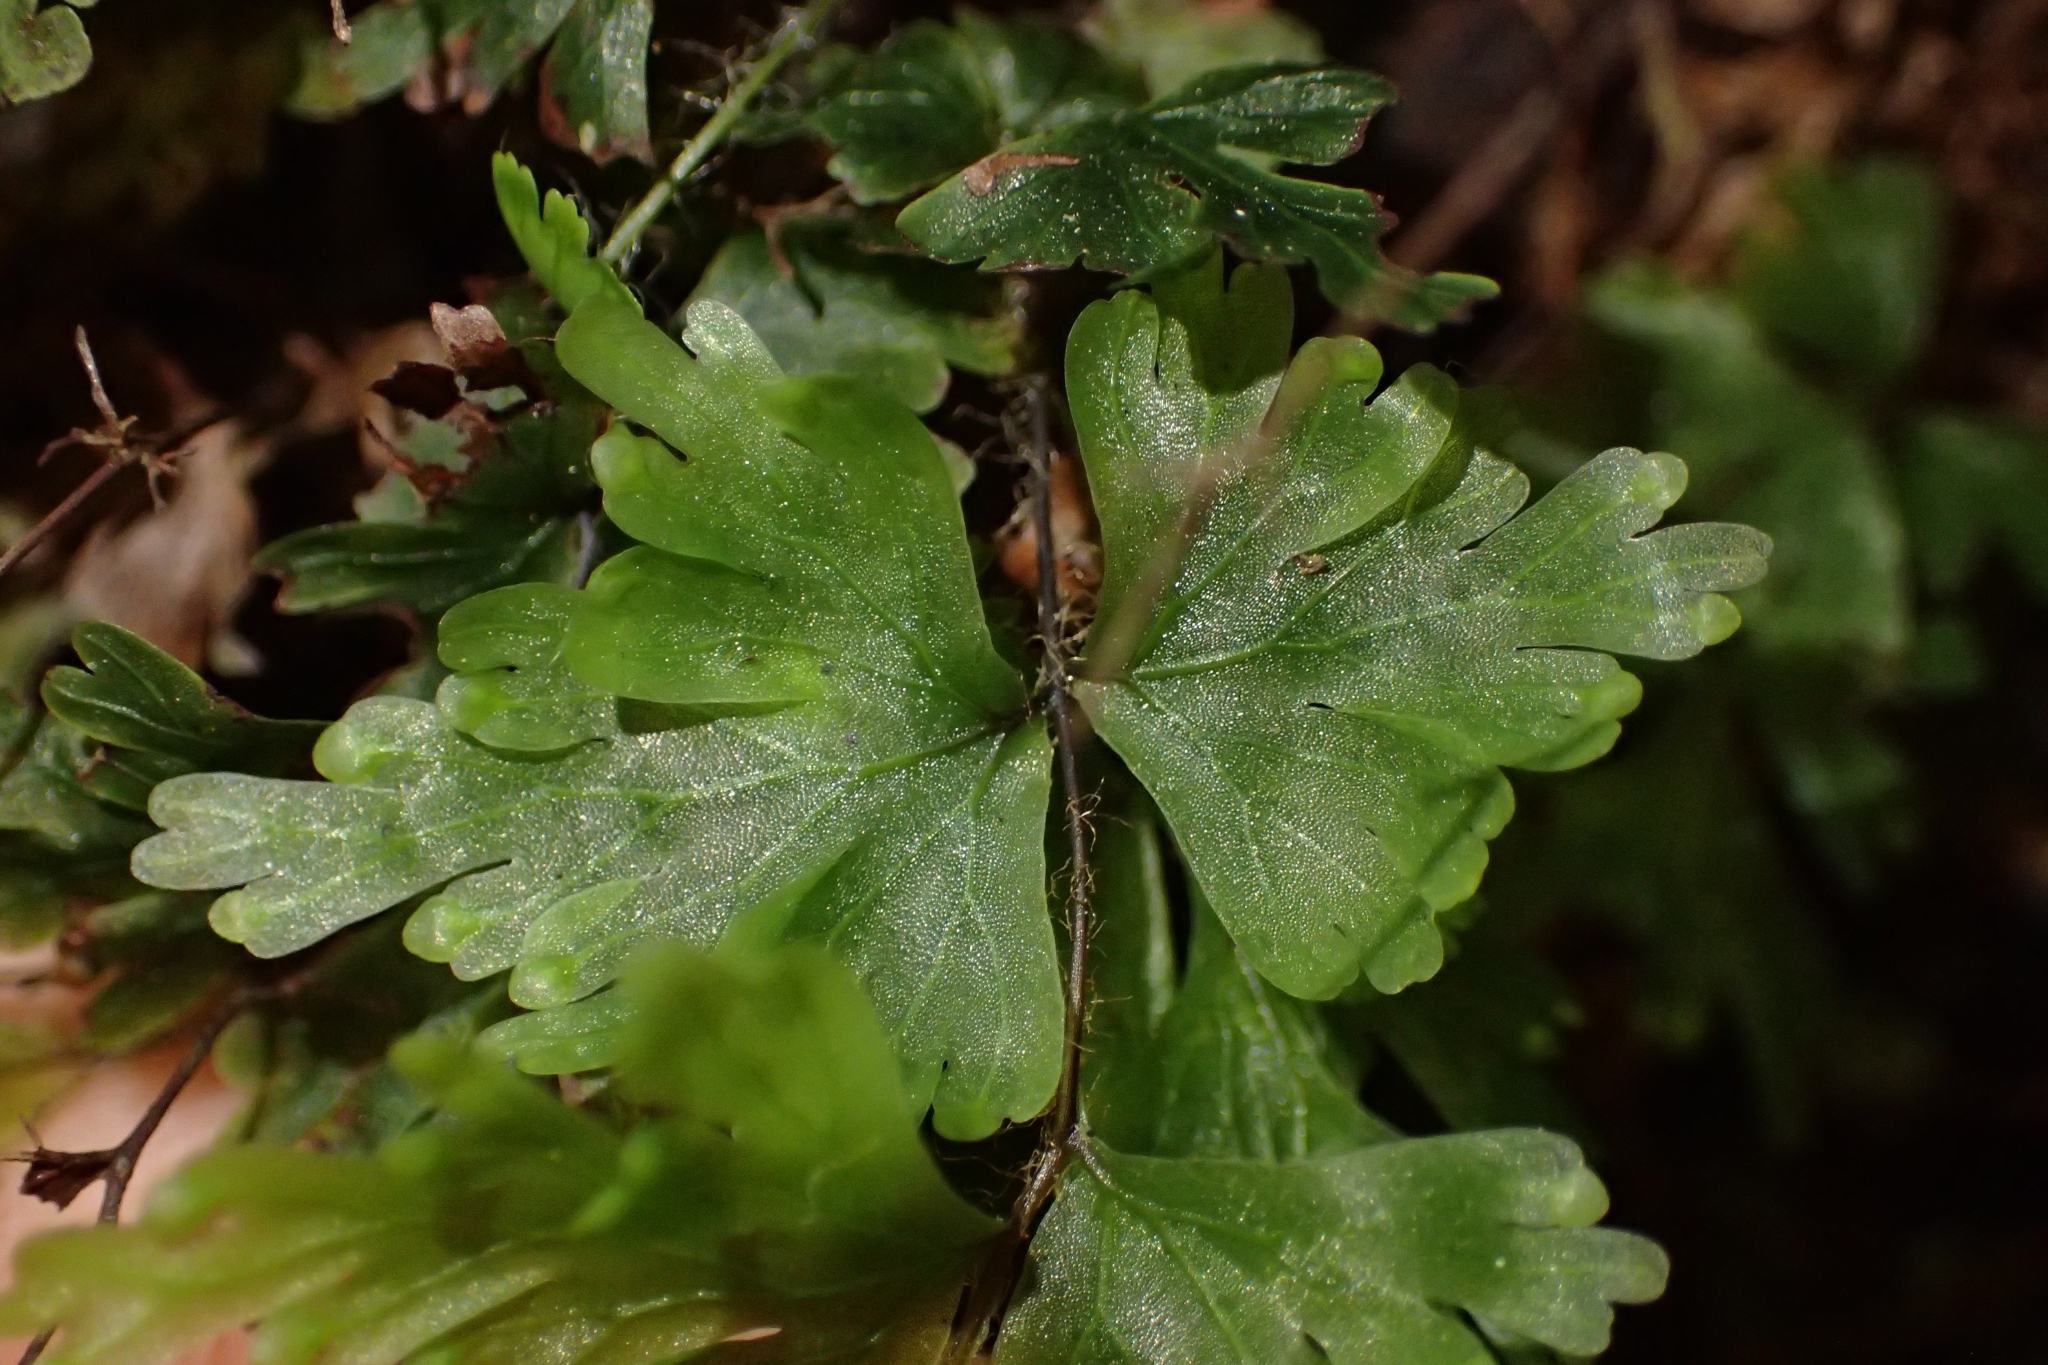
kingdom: Plantae
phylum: Tracheophyta
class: Polypodiopsida
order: Hymenophyllales
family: Hymenophyllaceae
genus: Hymenophyllum
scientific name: Hymenophyllum flabellatum
